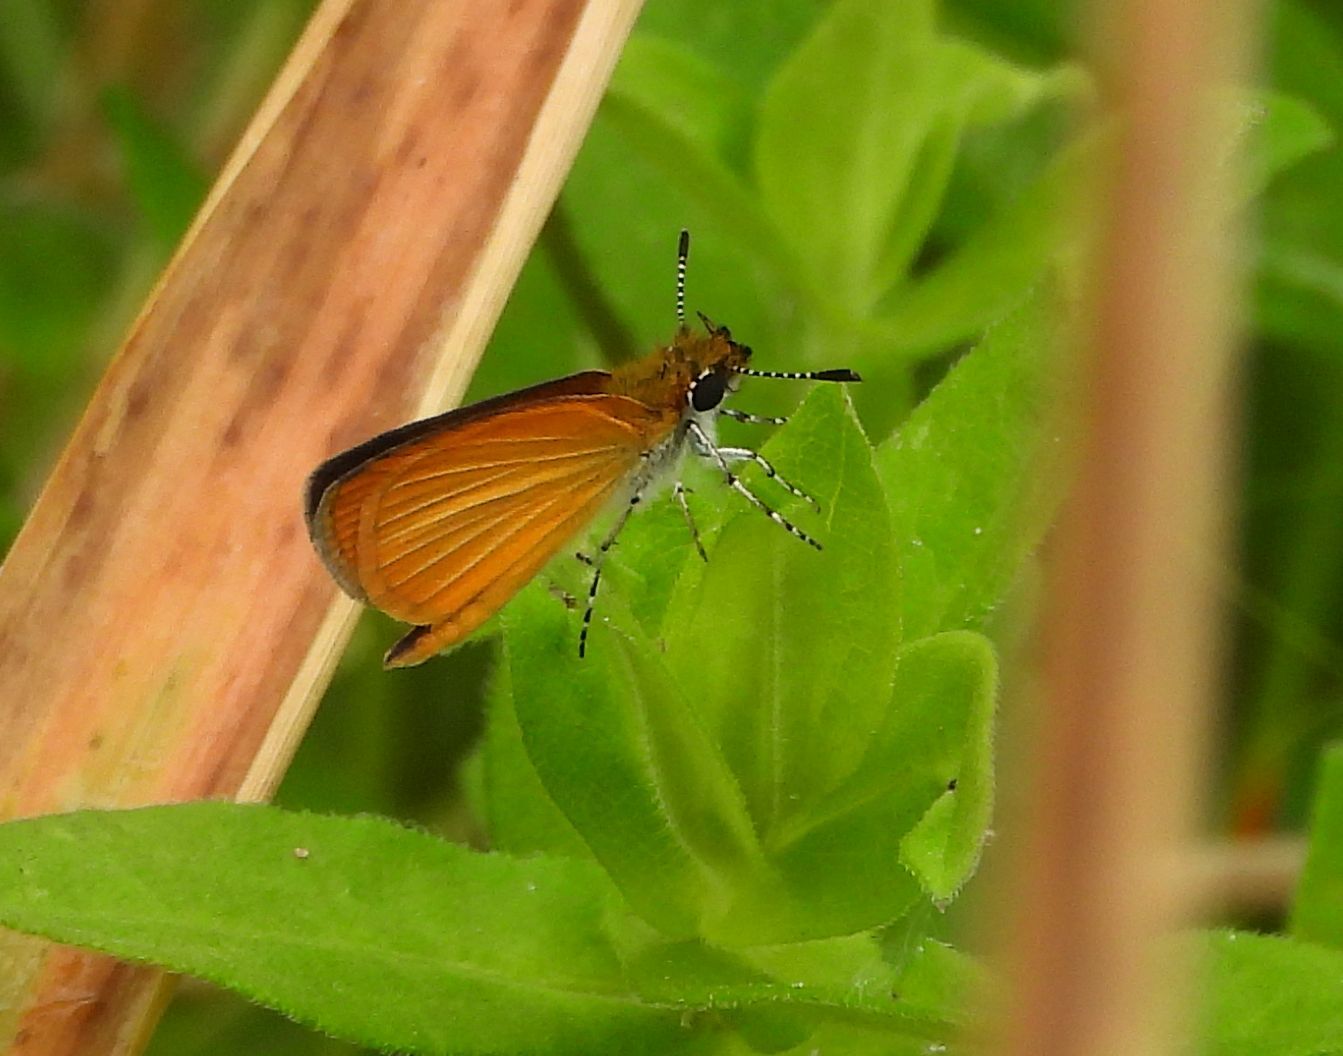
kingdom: Animalia
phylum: Arthropoda
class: Insecta
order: Lepidoptera
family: Hesperiidae
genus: Ancyloxypha
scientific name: Ancyloxypha numitor
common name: Least skipper
